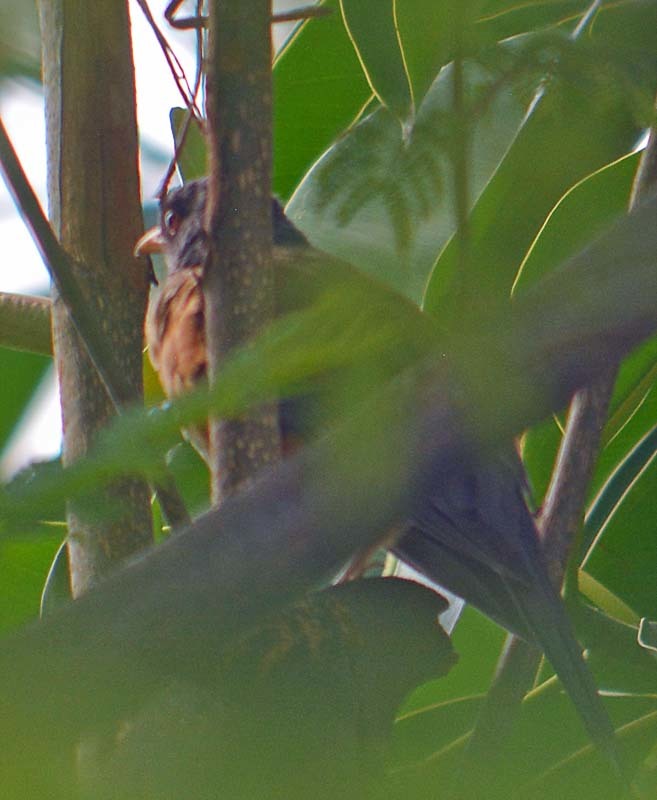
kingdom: Animalia
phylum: Chordata
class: Aves
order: Passeriformes
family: Turdidae
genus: Turdus
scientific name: Turdus rufopalliatus
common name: Rufous-backed robin
